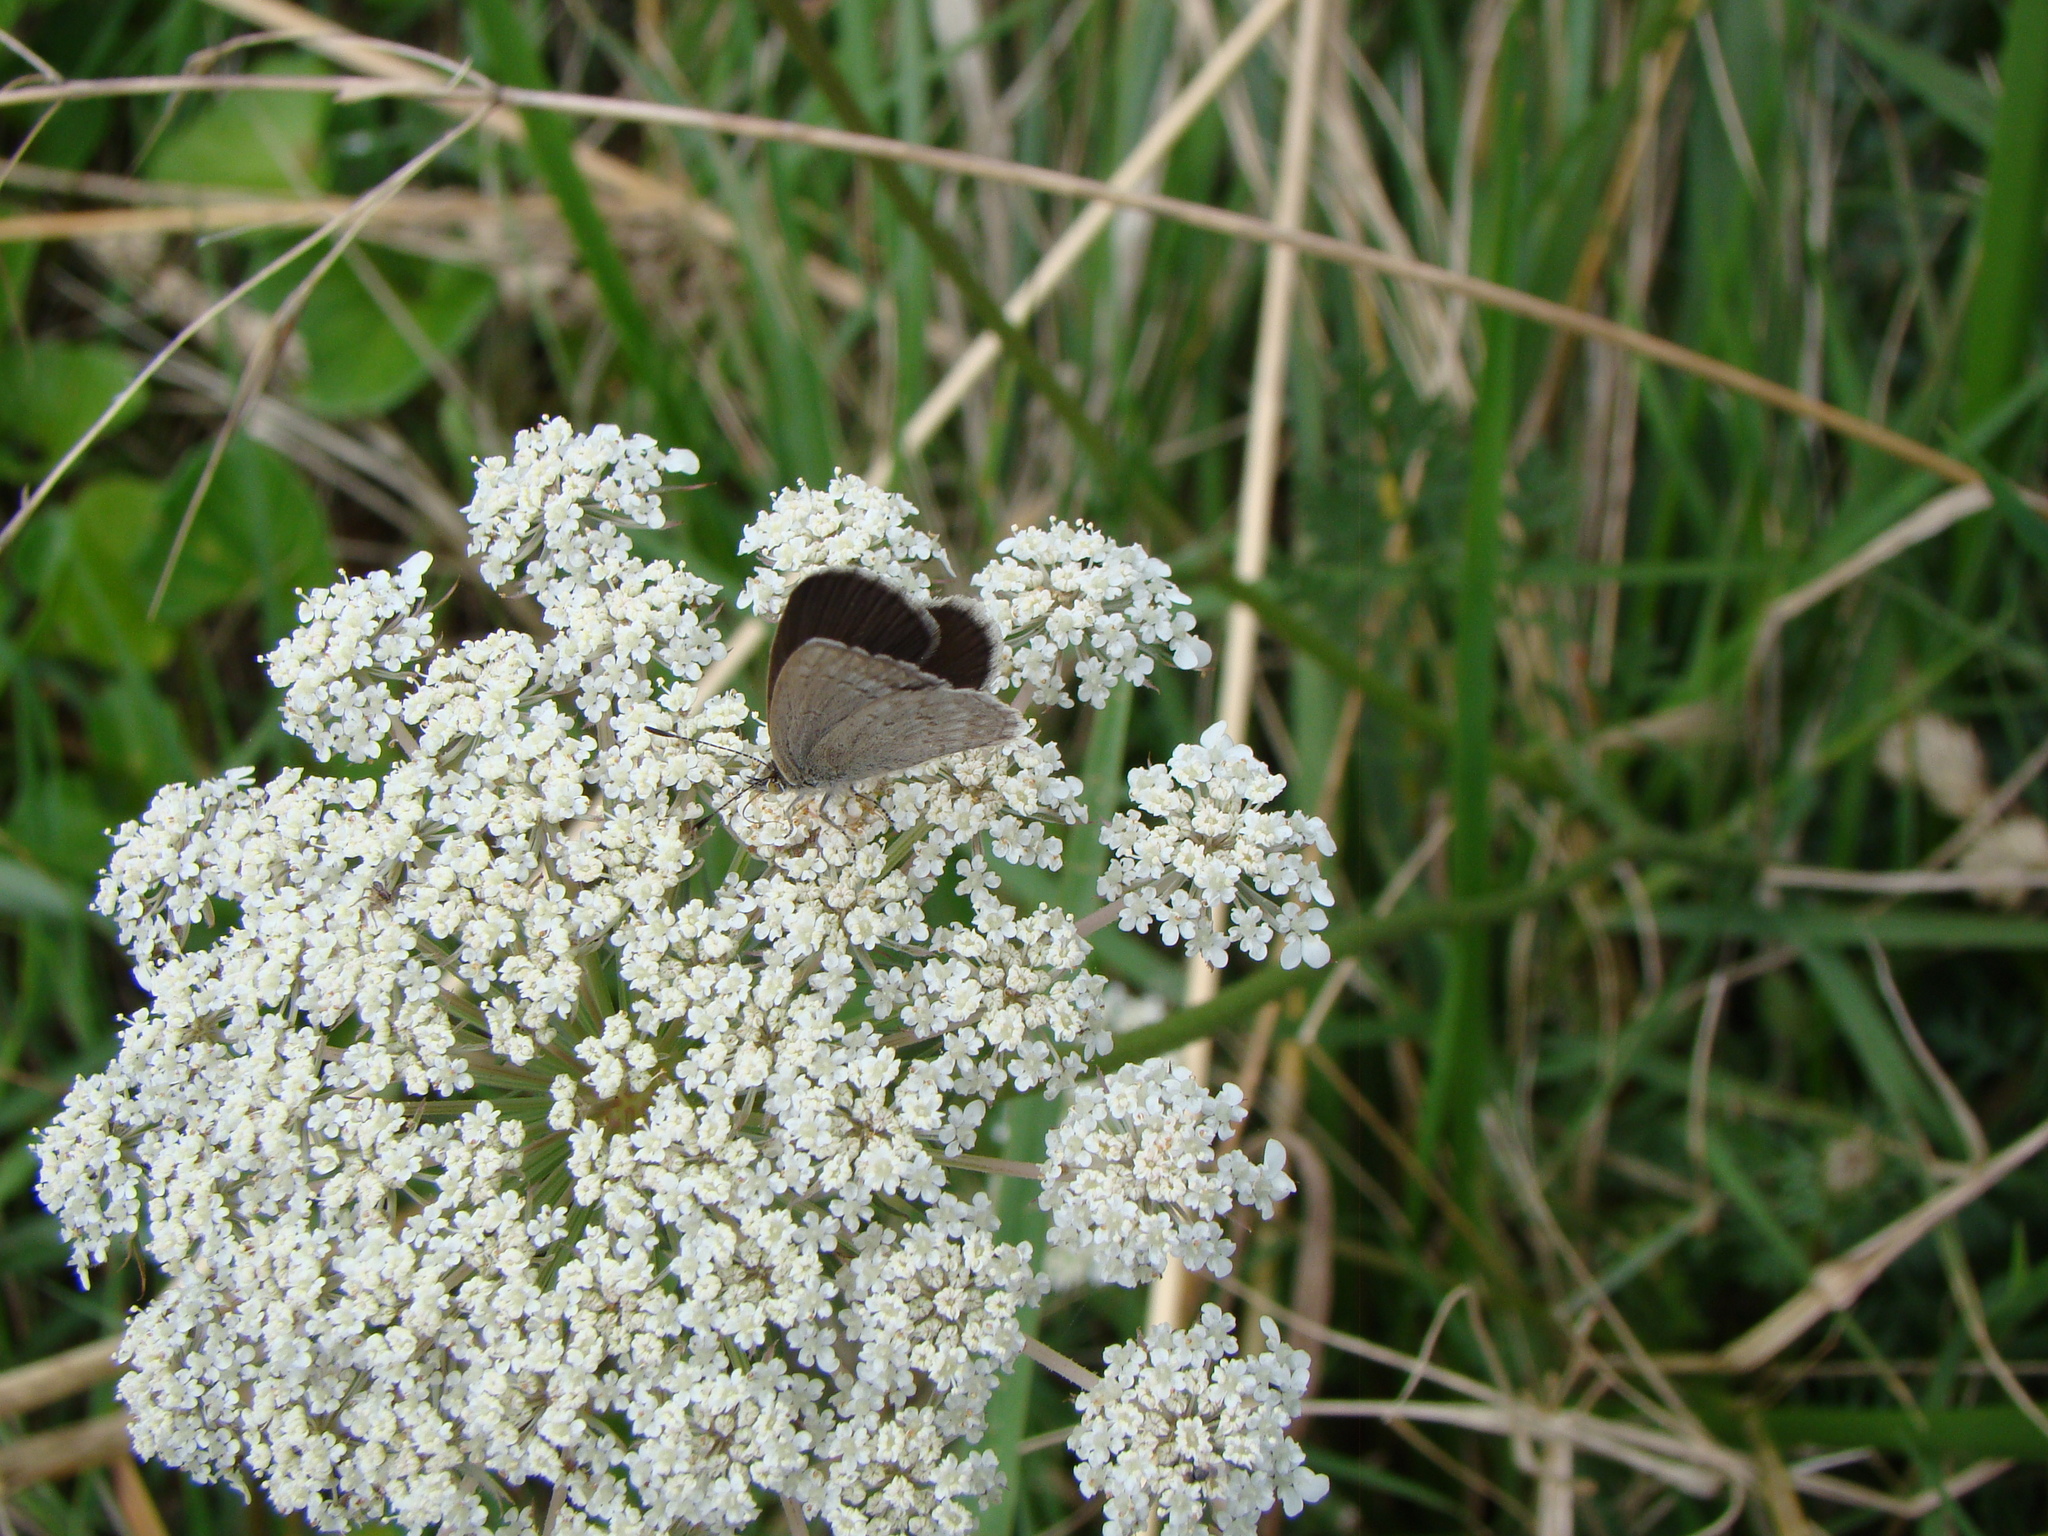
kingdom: Animalia
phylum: Arthropoda
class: Insecta
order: Lepidoptera
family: Lycaenidae
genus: Zizina
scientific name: Zizina labradus
